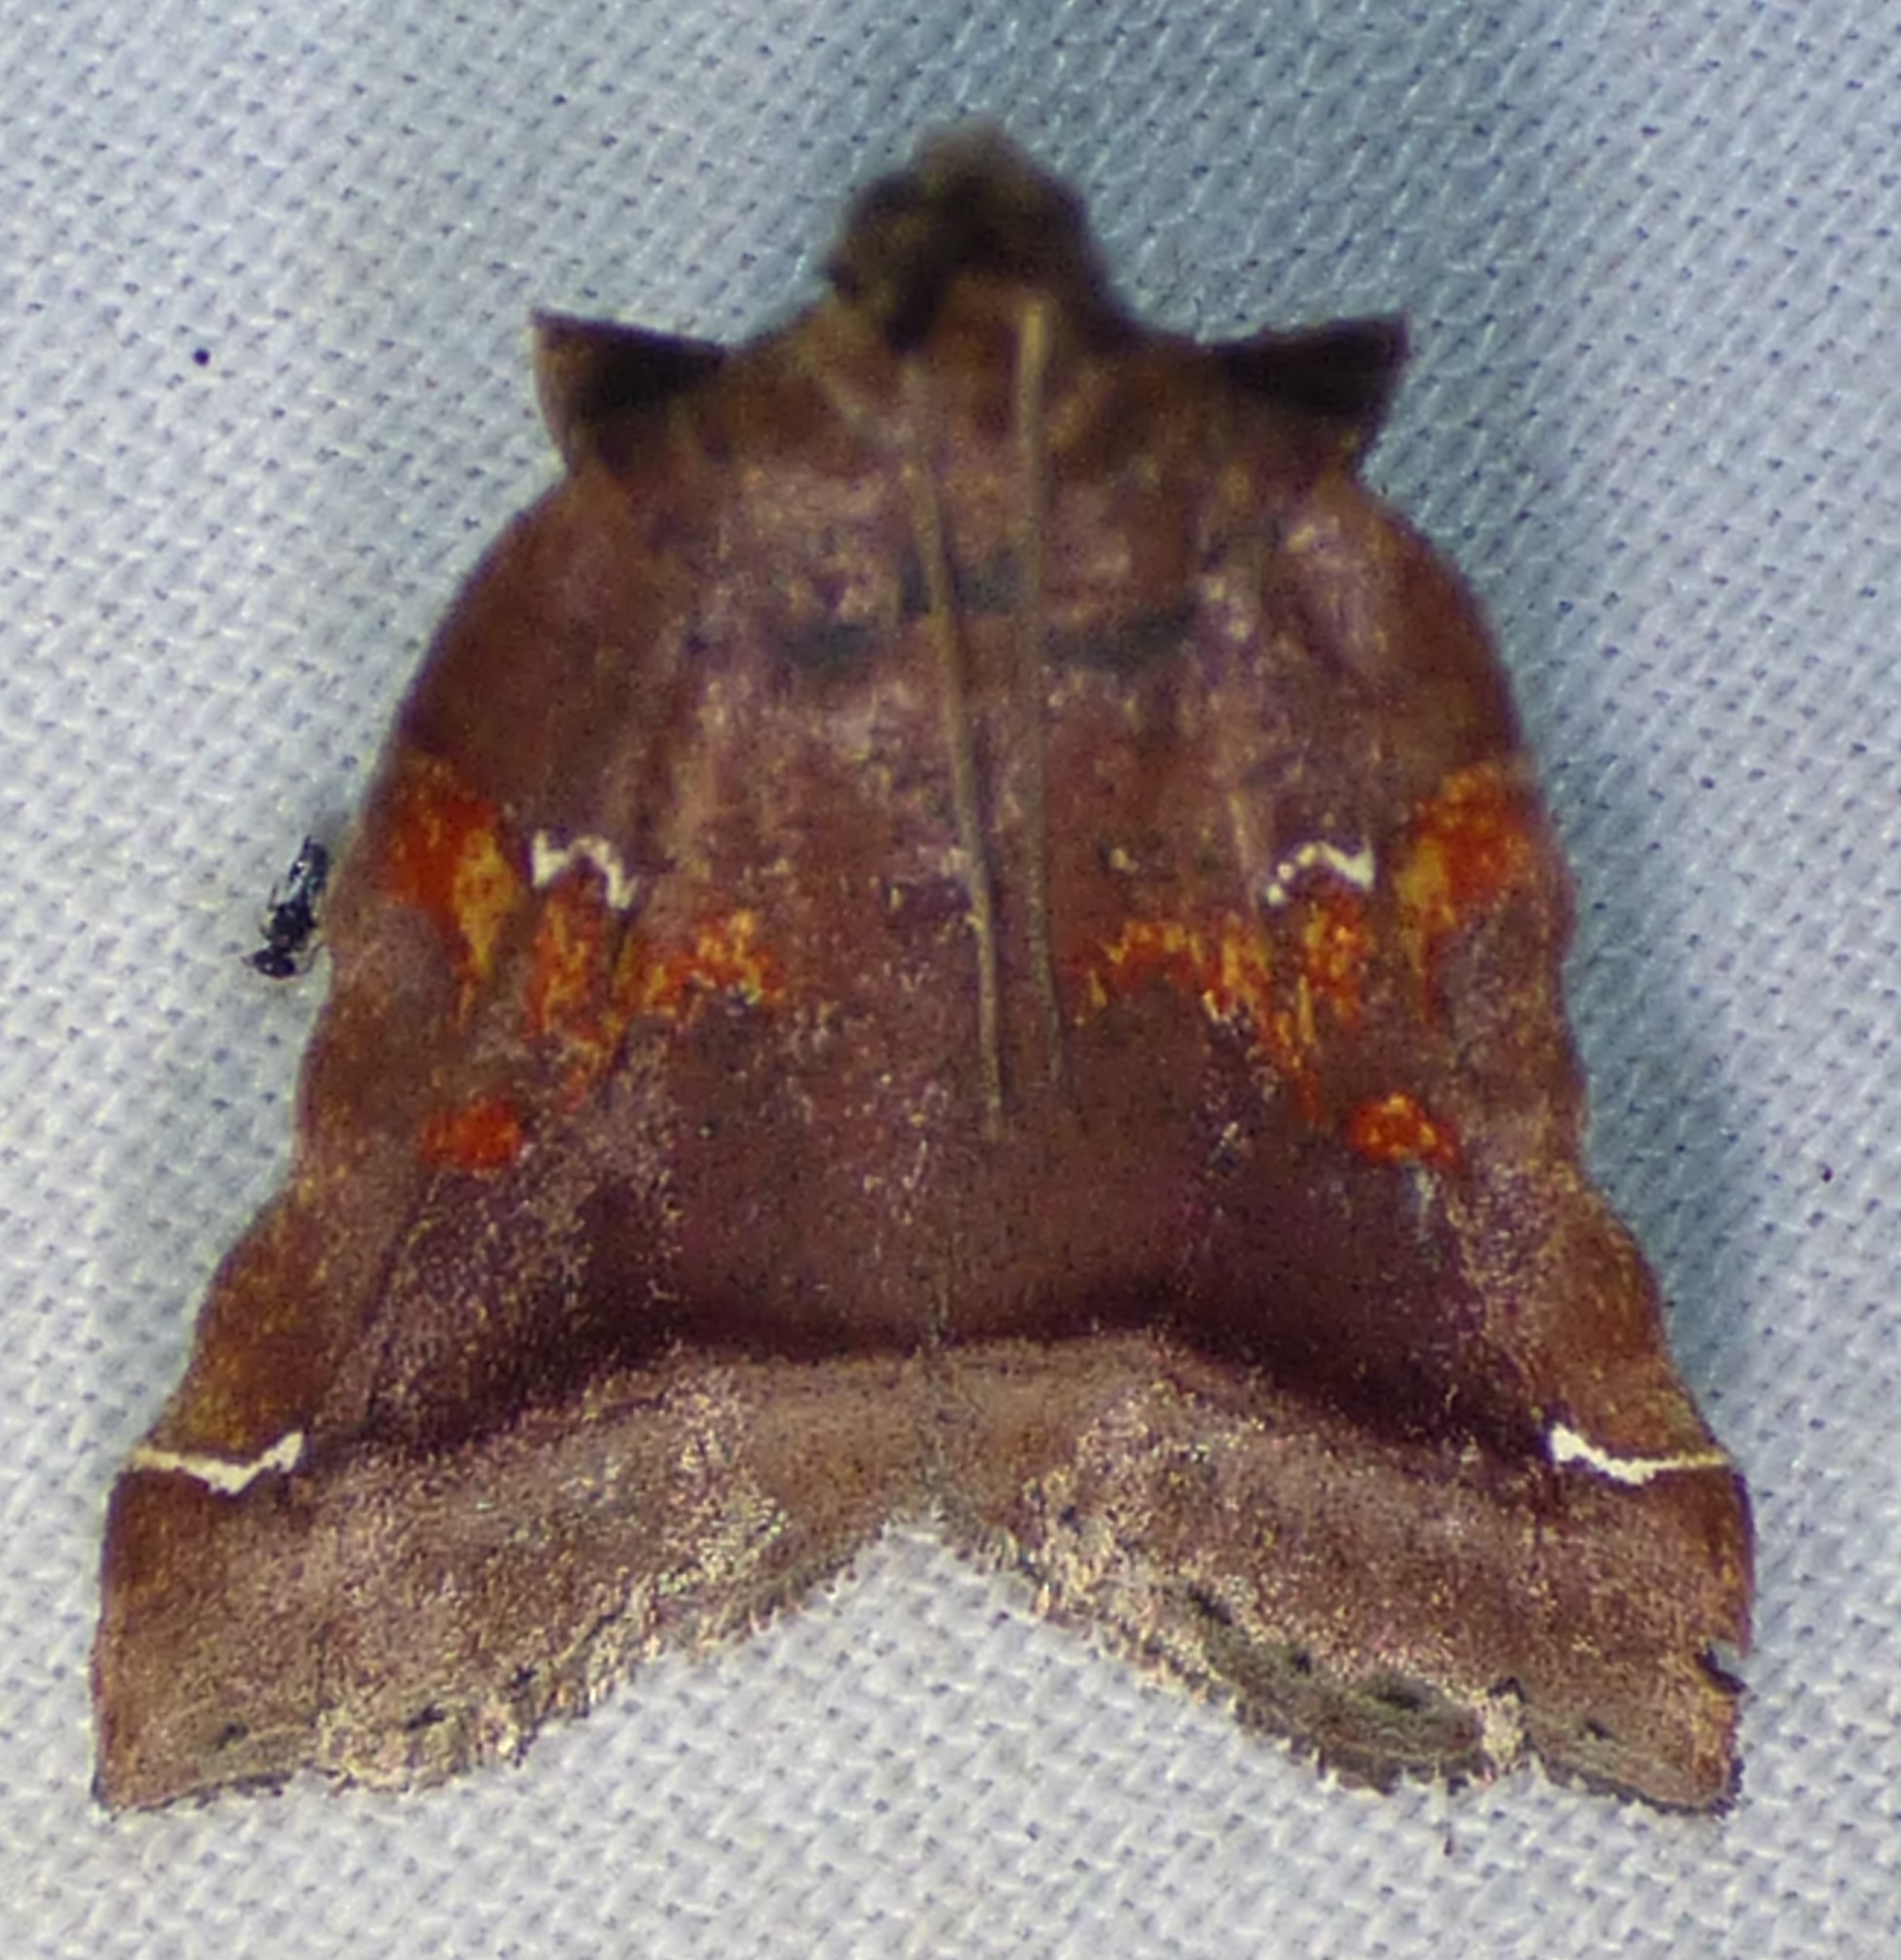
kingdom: Animalia
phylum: Arthropoda
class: Insecta
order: Lepidoptera
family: Pyralidae
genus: Clydonopteron
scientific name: Clydonopteron sacculana
